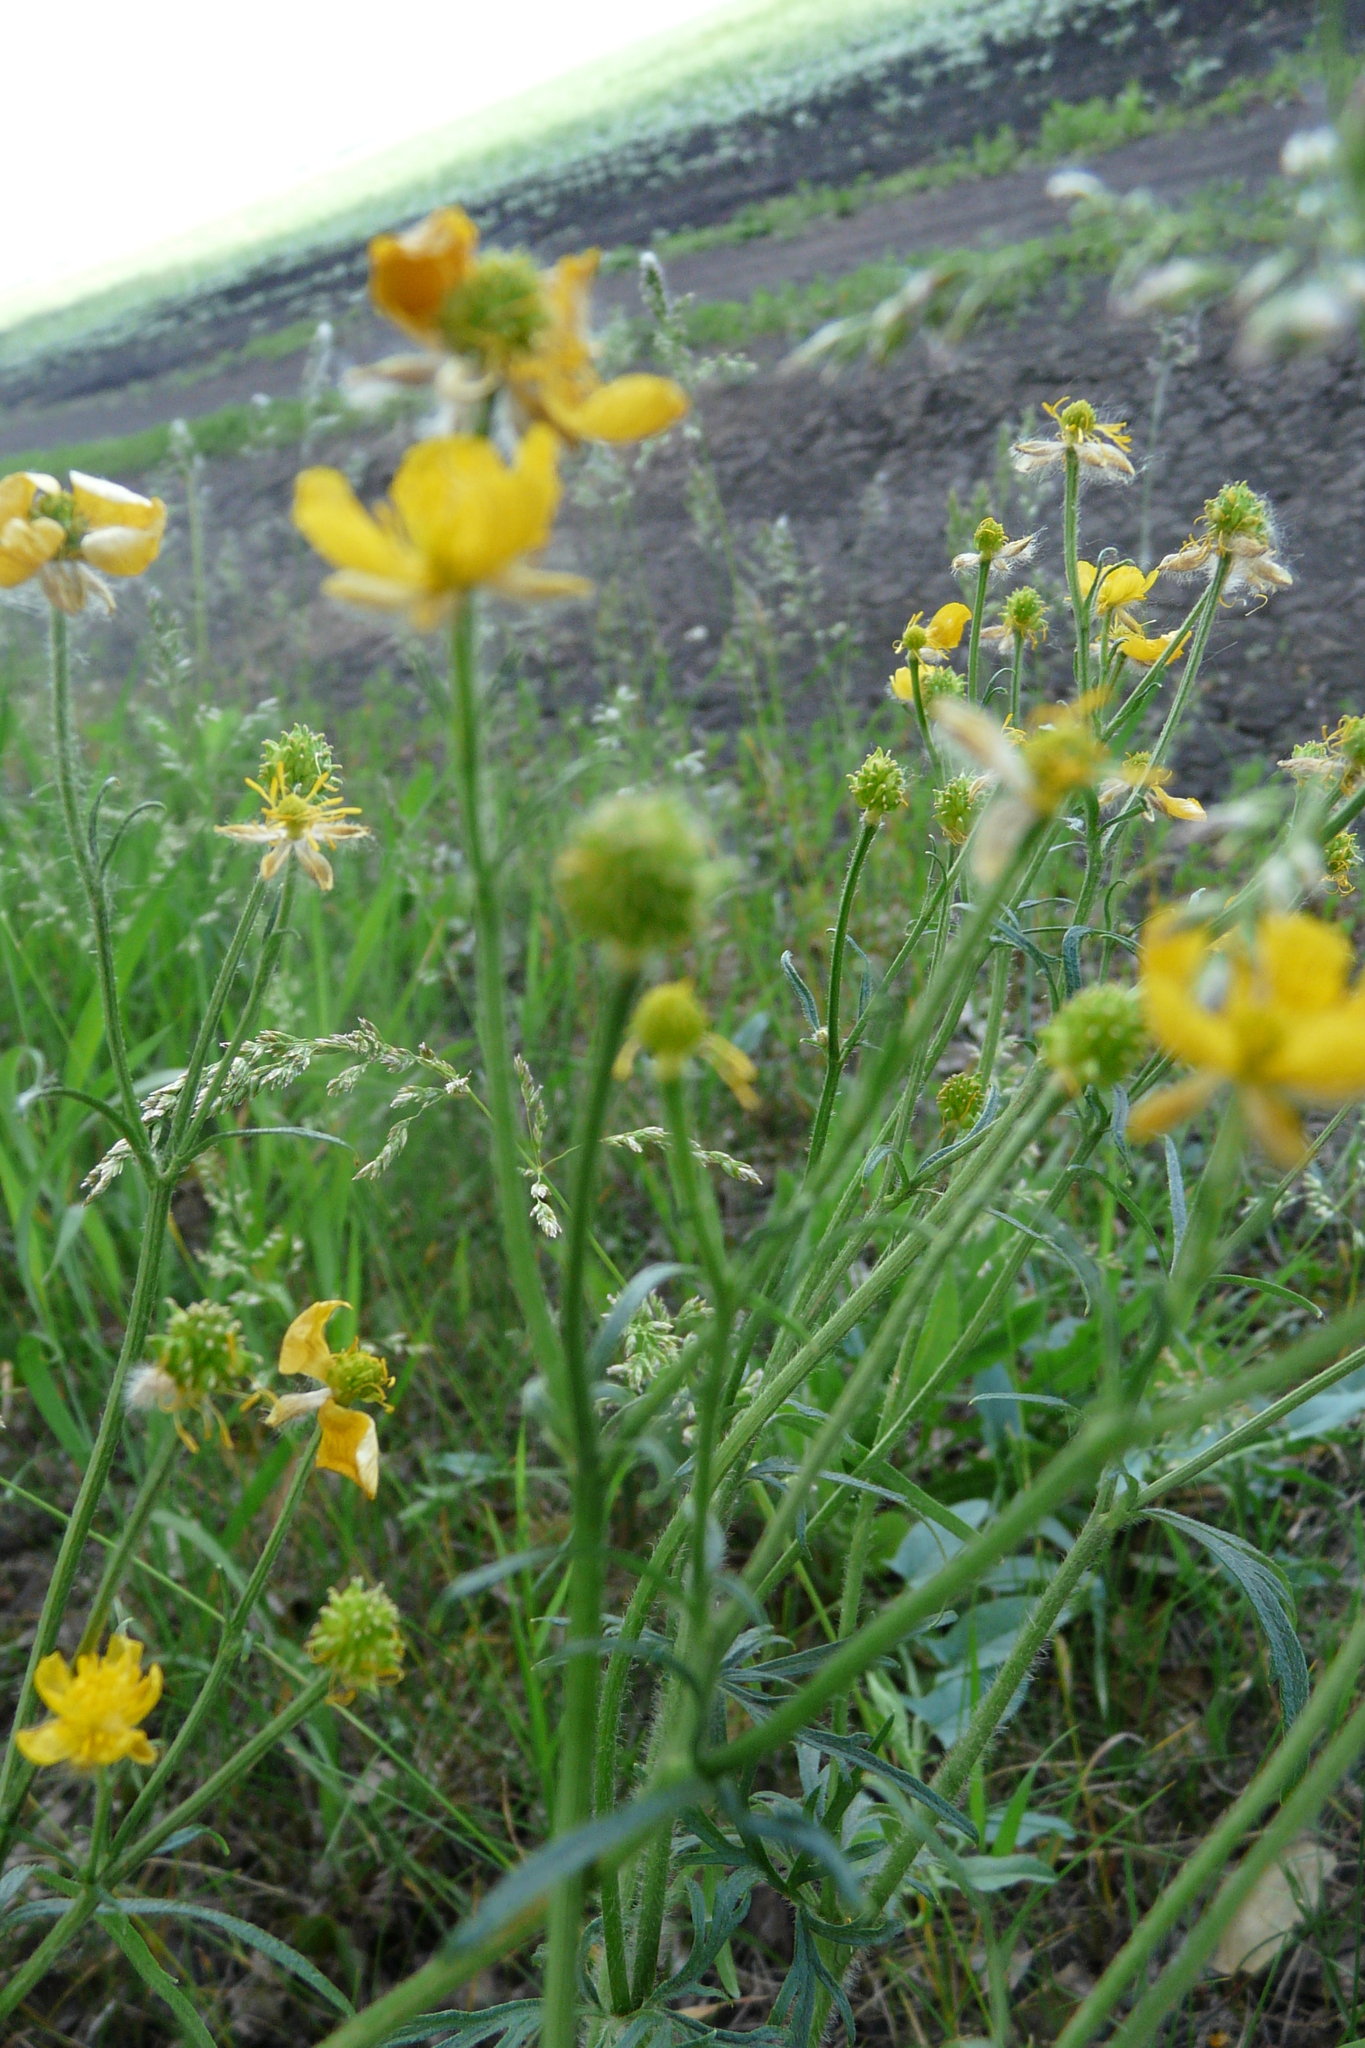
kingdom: Plantae
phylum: Tracheophyta
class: Magnoliopsida
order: Ranunculales
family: Ranunculaceae
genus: Ranunculus
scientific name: Ranunculus polyanthemos
